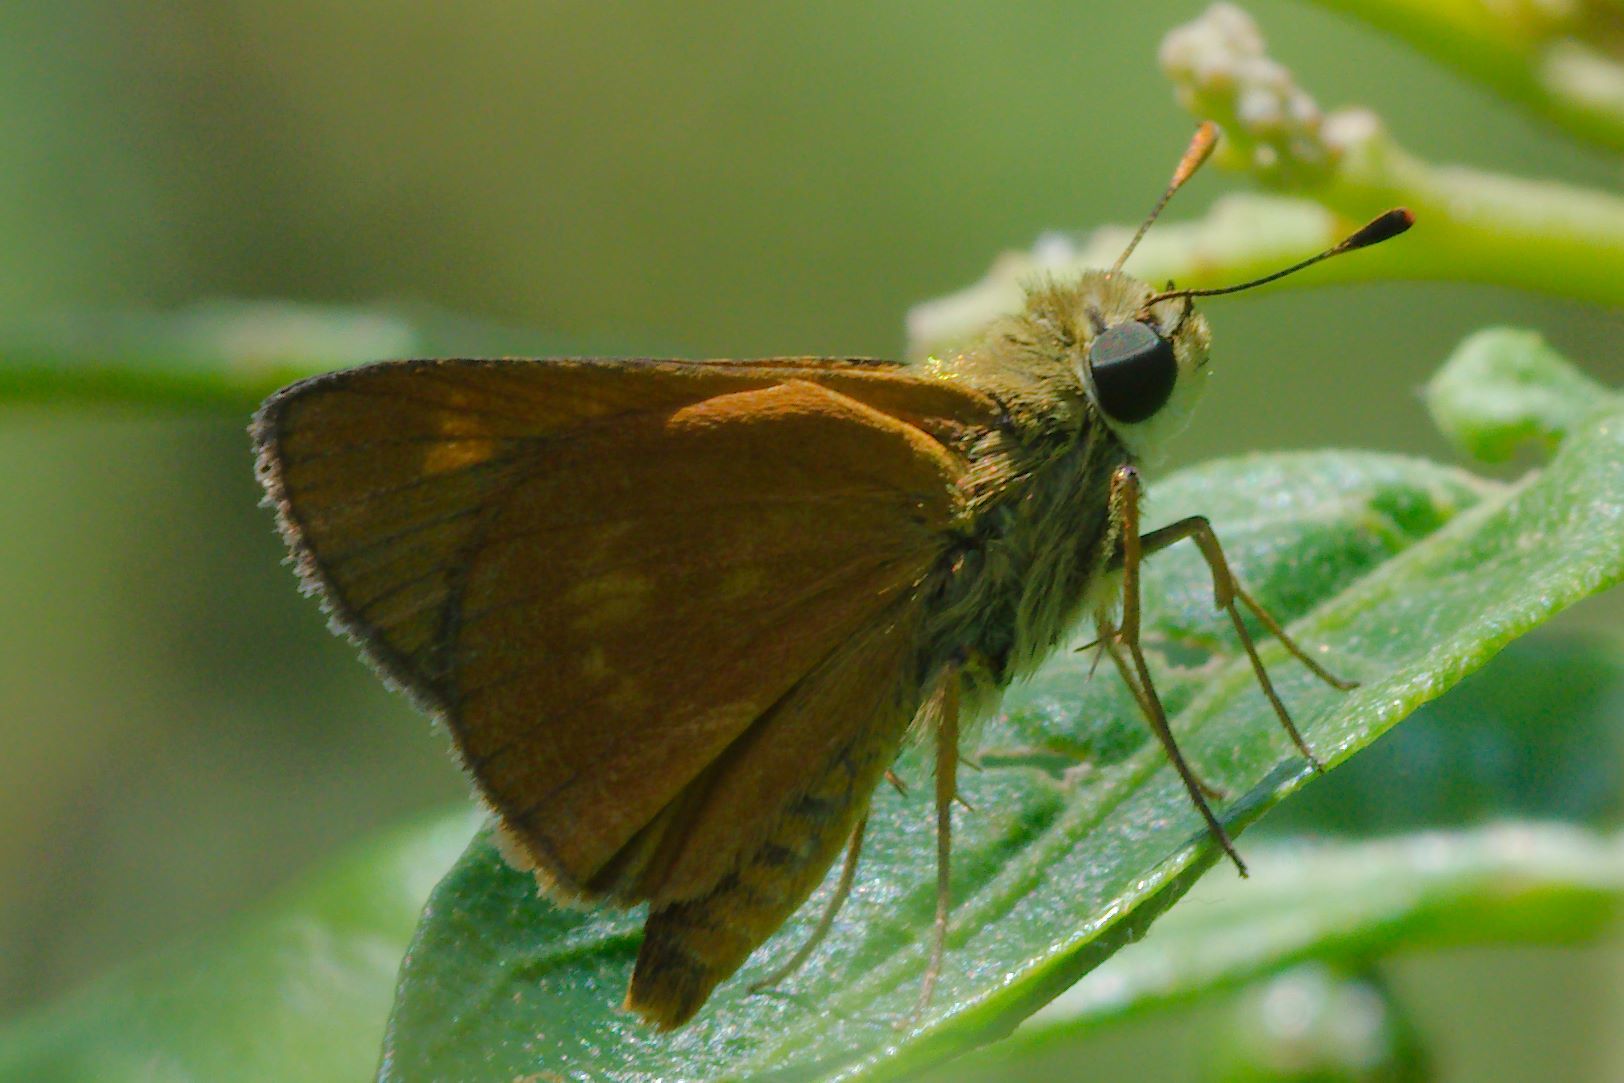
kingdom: Animalia
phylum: Arthropoda
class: Insecta
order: Lepidoptera
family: Hesperiidae
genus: Polites
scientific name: Polites otho
